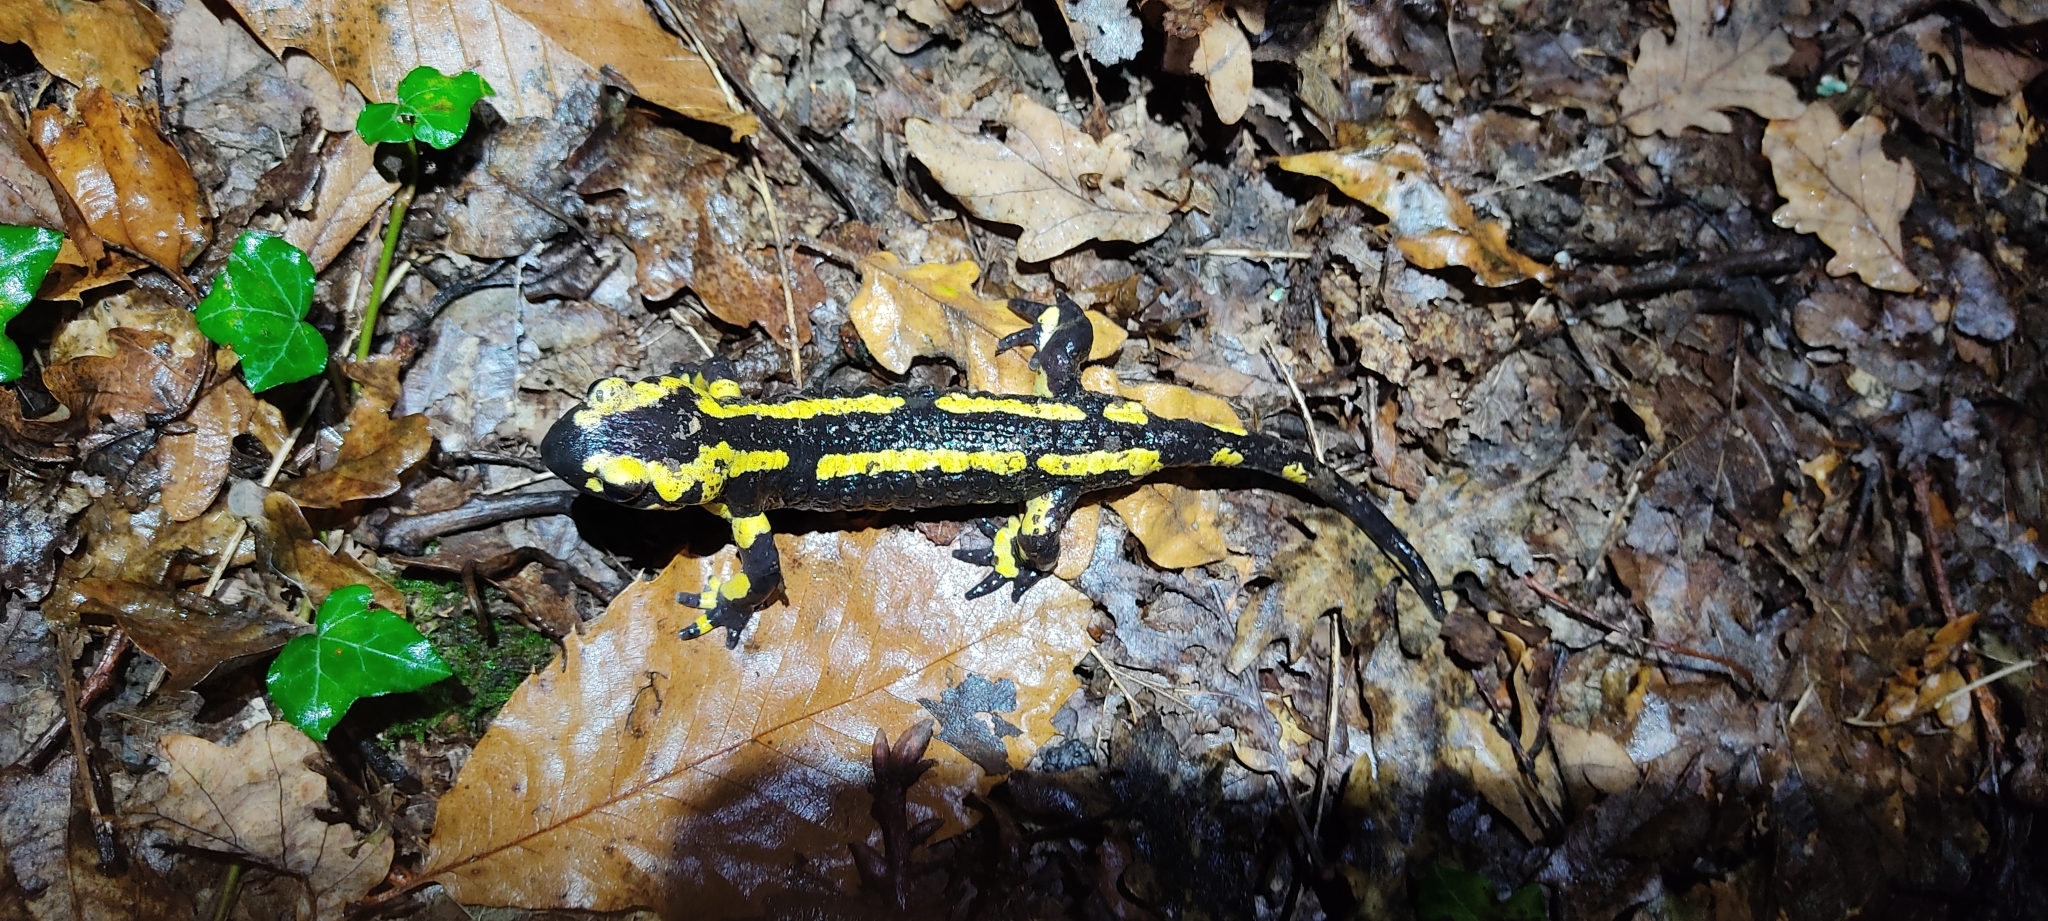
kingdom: Animalia
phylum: Chordata
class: Amphibia
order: Caudata
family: Salamandridae
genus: Salamandra
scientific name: Salamandra salamandra
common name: Fire salamander
